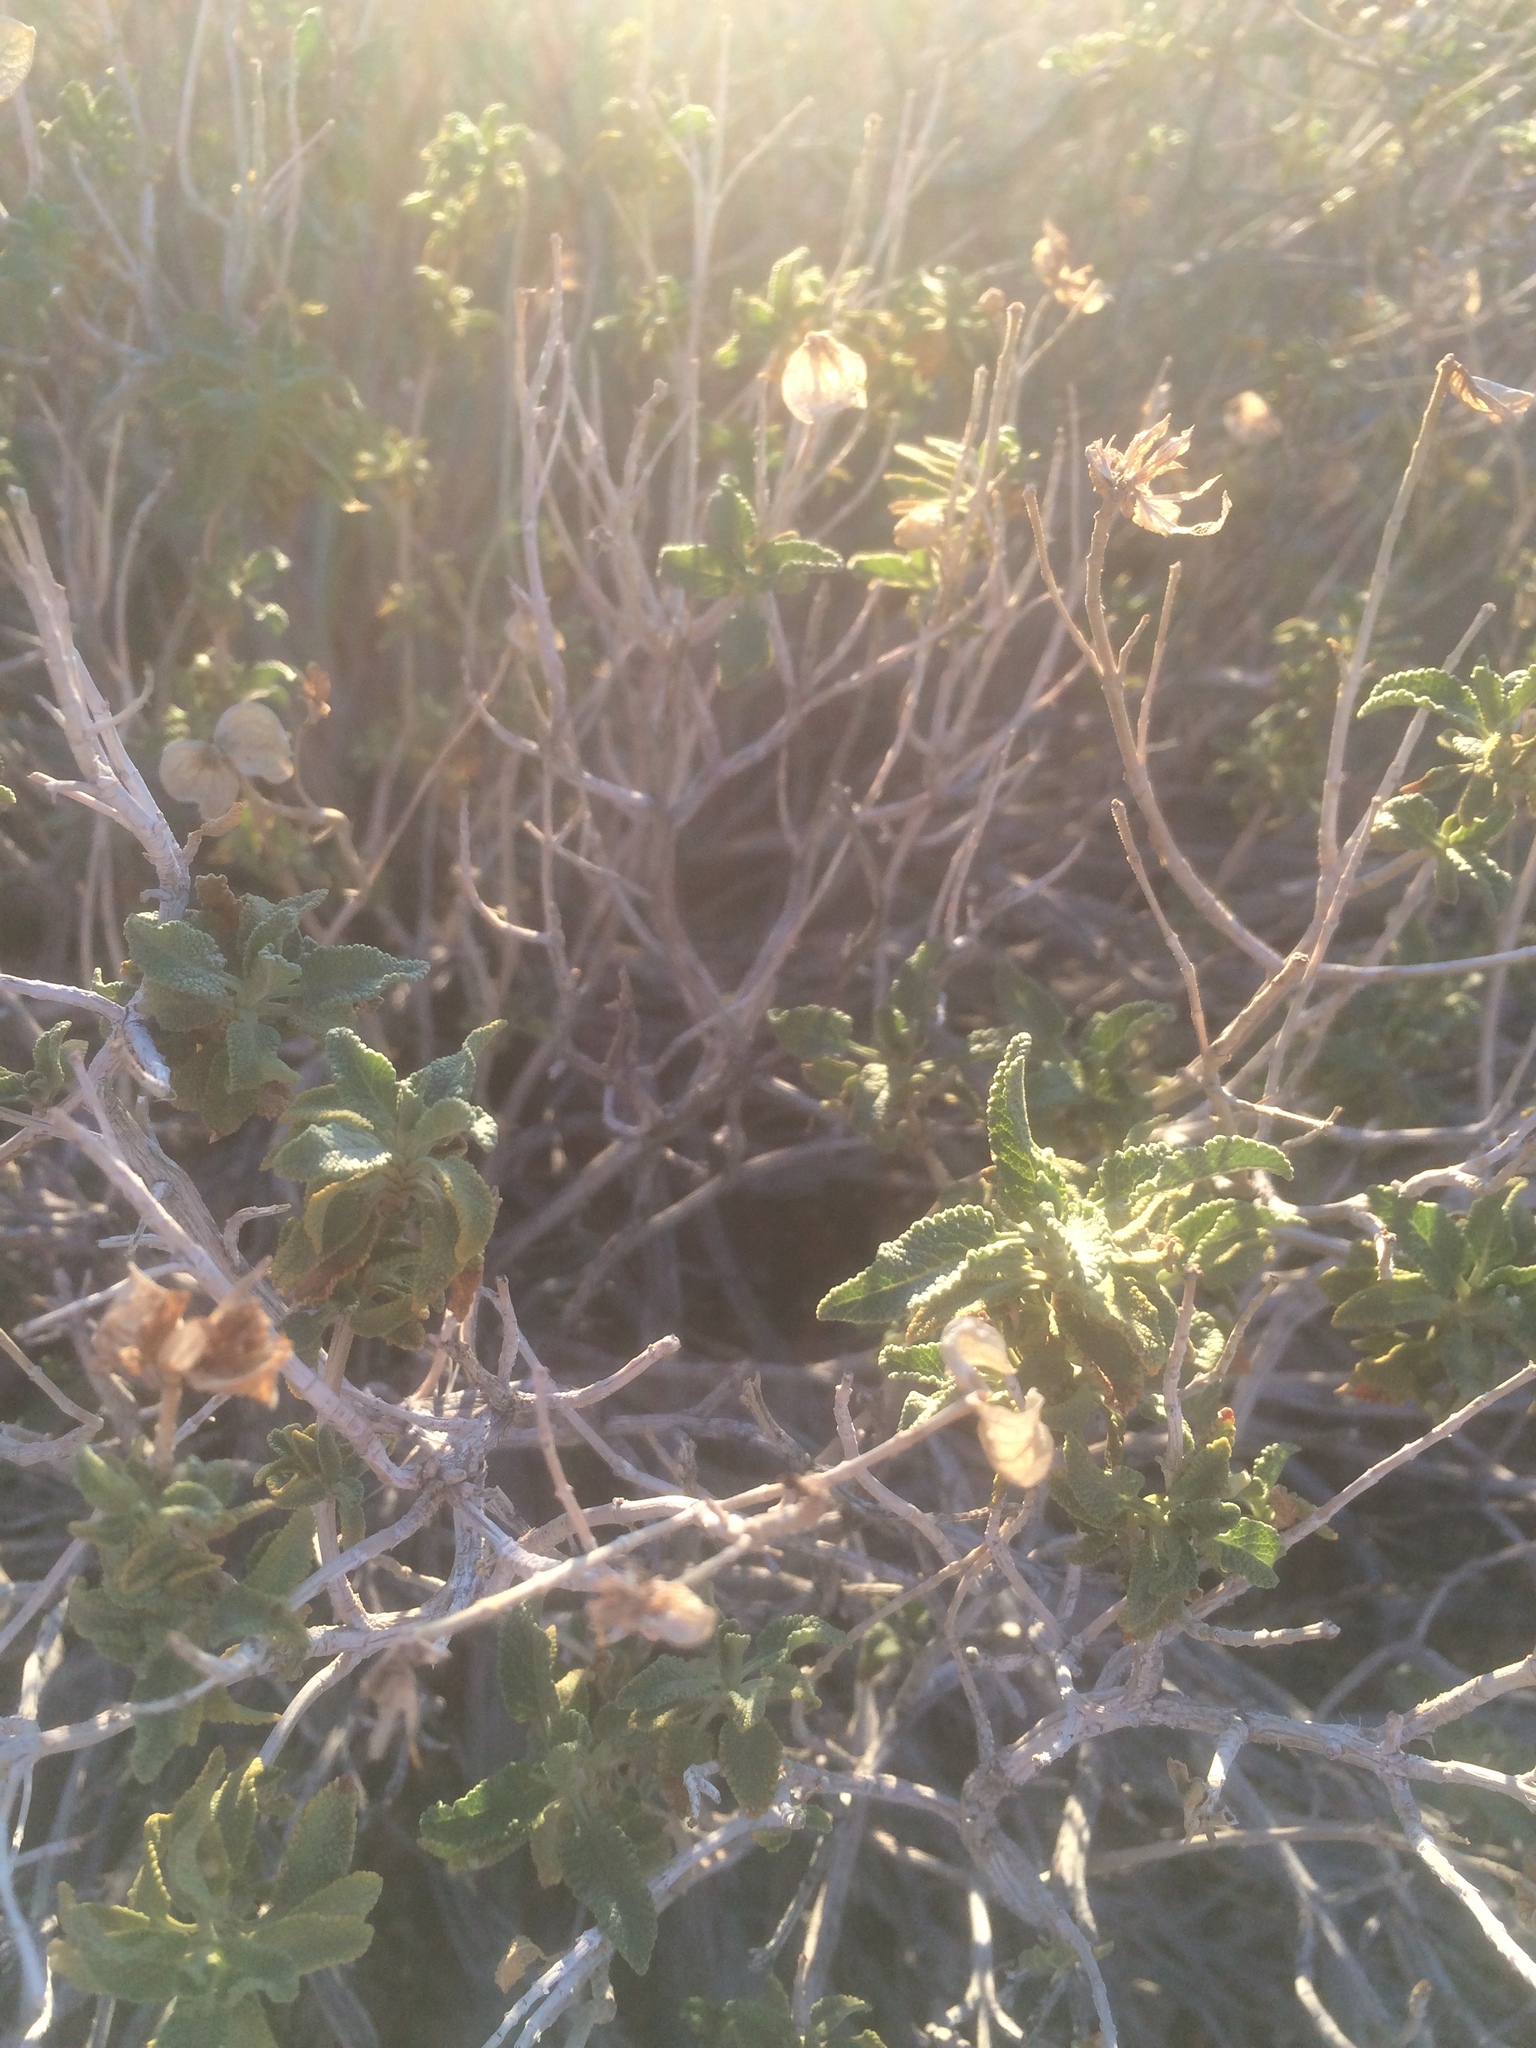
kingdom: Plantae
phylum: Tracheophyta
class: Magnoliopsida
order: Lamiales
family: Lamiaceae
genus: Salvia
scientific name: Salvia mohavensis
